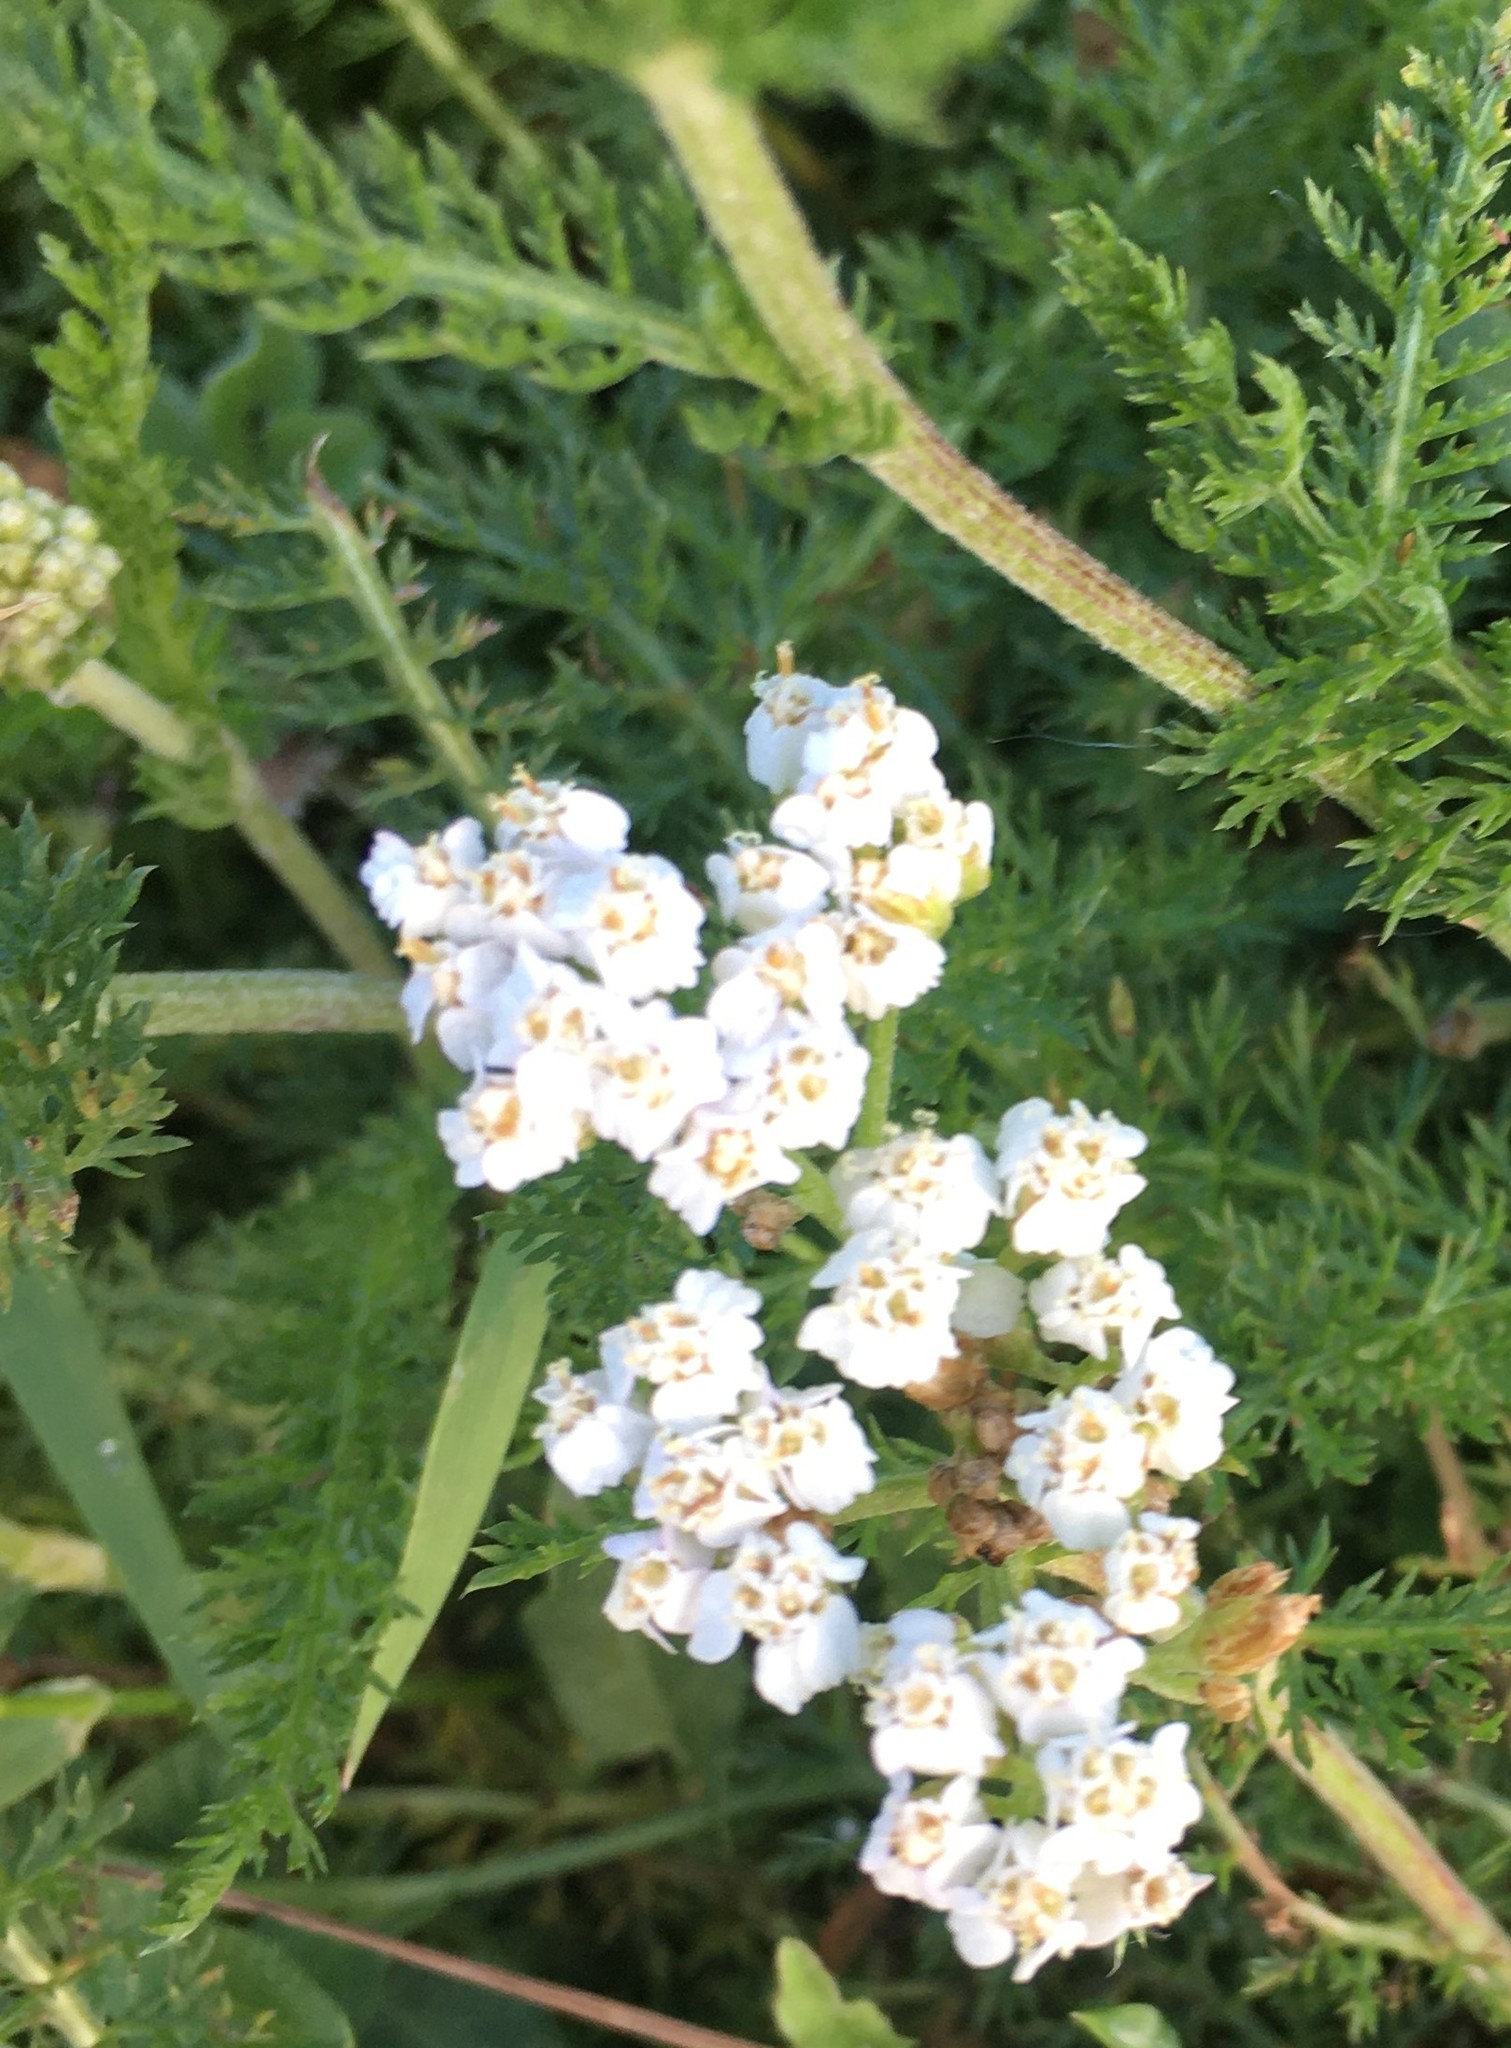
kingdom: Plantae
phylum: Tracheophyta
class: Magnoliopsida
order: Asterales
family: Asteraceae
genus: Achillea
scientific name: Achillea millefolium
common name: Yarrow
